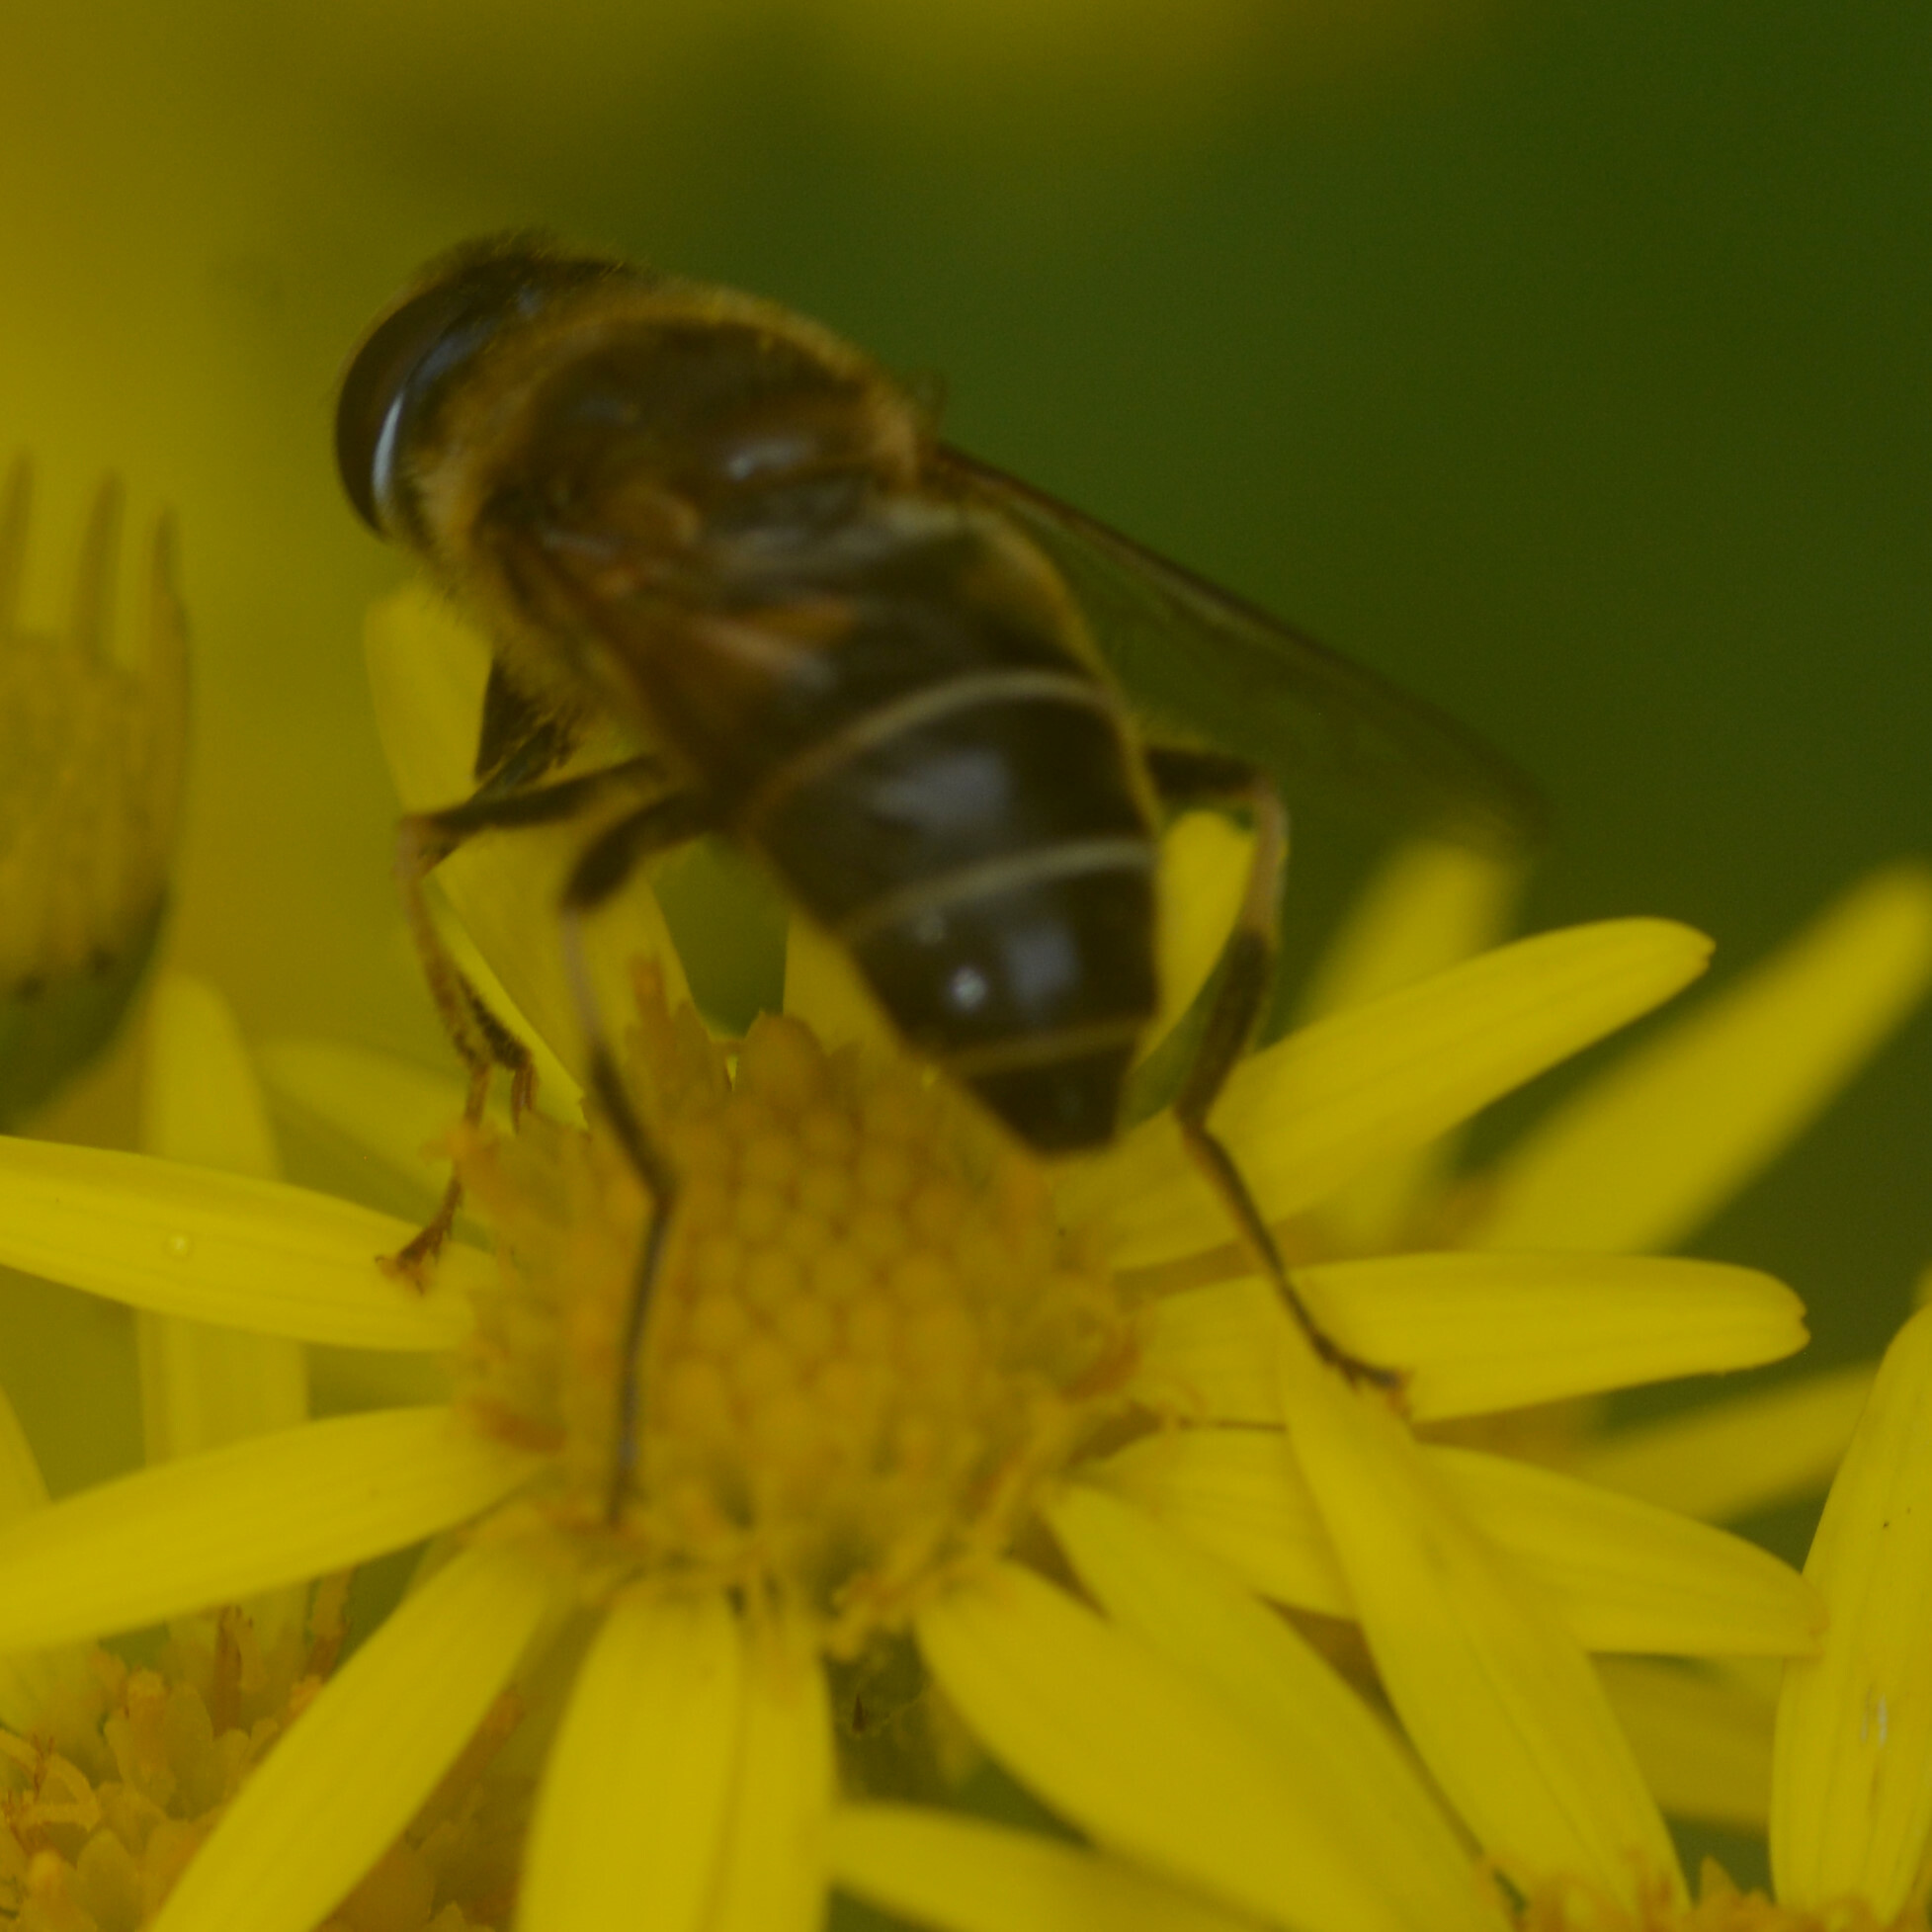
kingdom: Animalia
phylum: Arthropoda
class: Insecta
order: Diptera
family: Syrphidae
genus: Eristalis
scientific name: Eristalis pertinax
